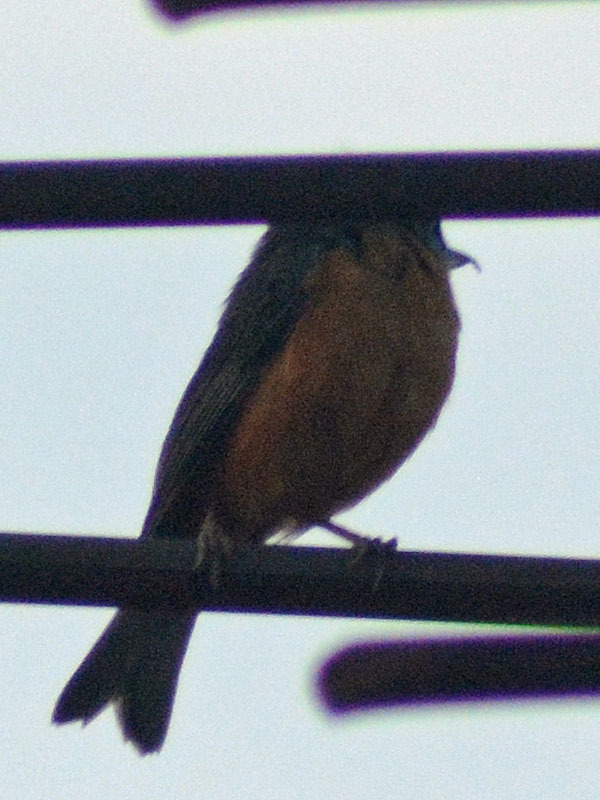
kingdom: Animalia
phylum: Chordata
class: Aves
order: Passeriformes
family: Thraupidae
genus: Diglossa
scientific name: Diglossa baritula
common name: Cinnamon-bellied flowerpiercer
